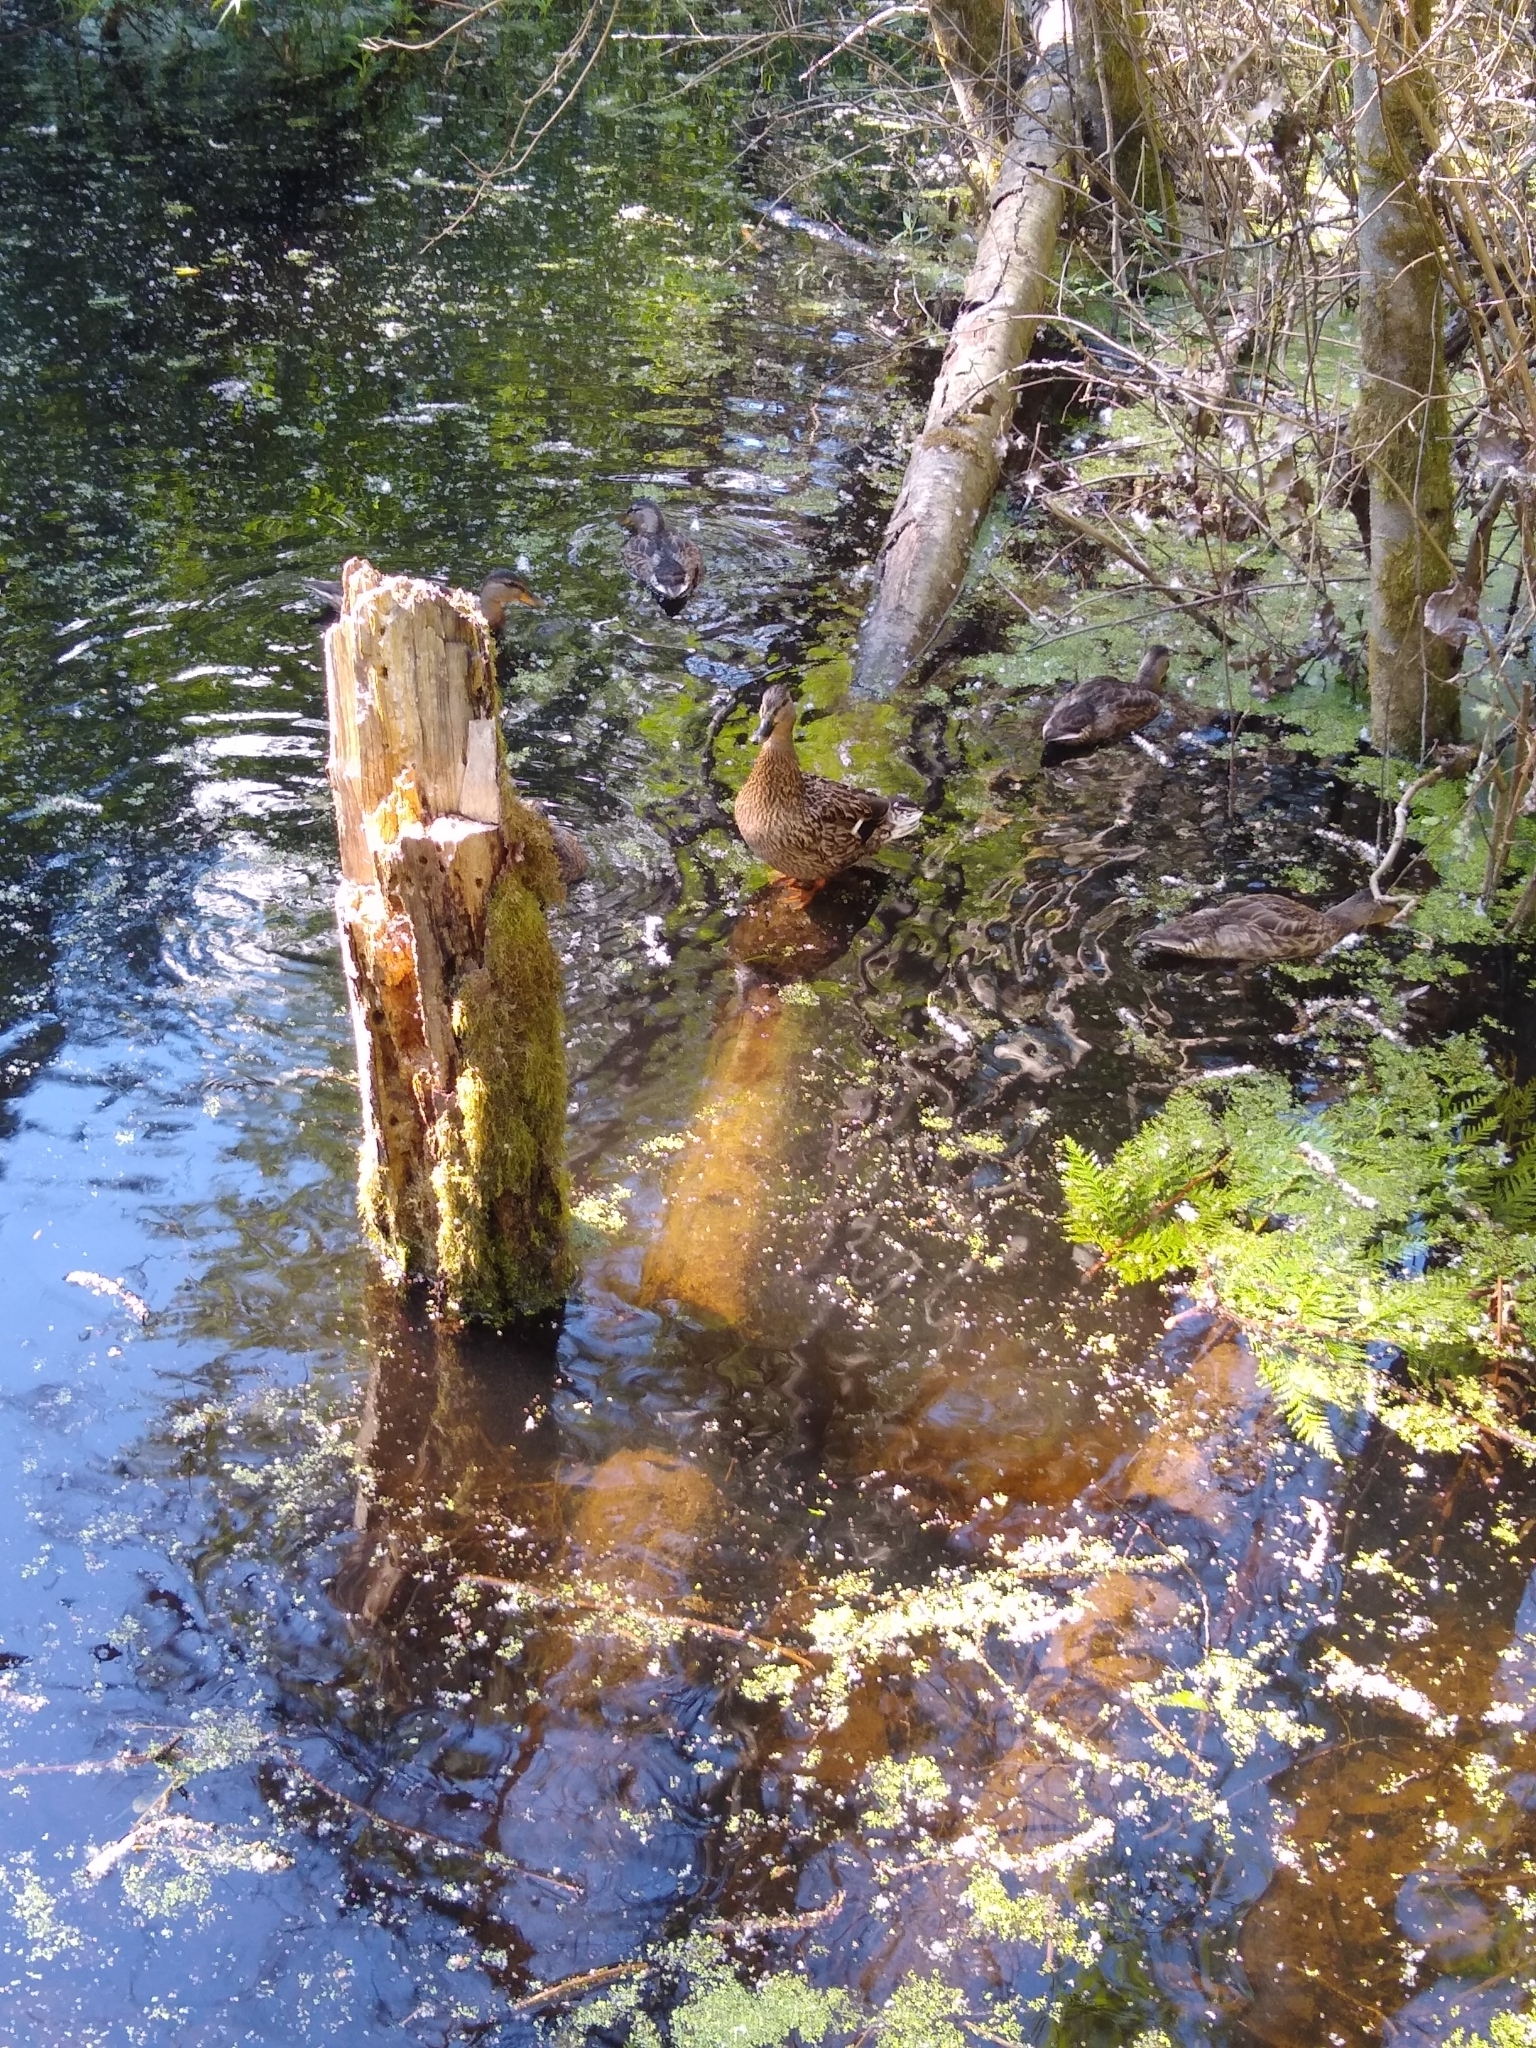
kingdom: Animalia
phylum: Chordata
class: Aves
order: Anseriformes
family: Anatidae
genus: Anas
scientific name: Anas platyrhynchos
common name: Mallard
